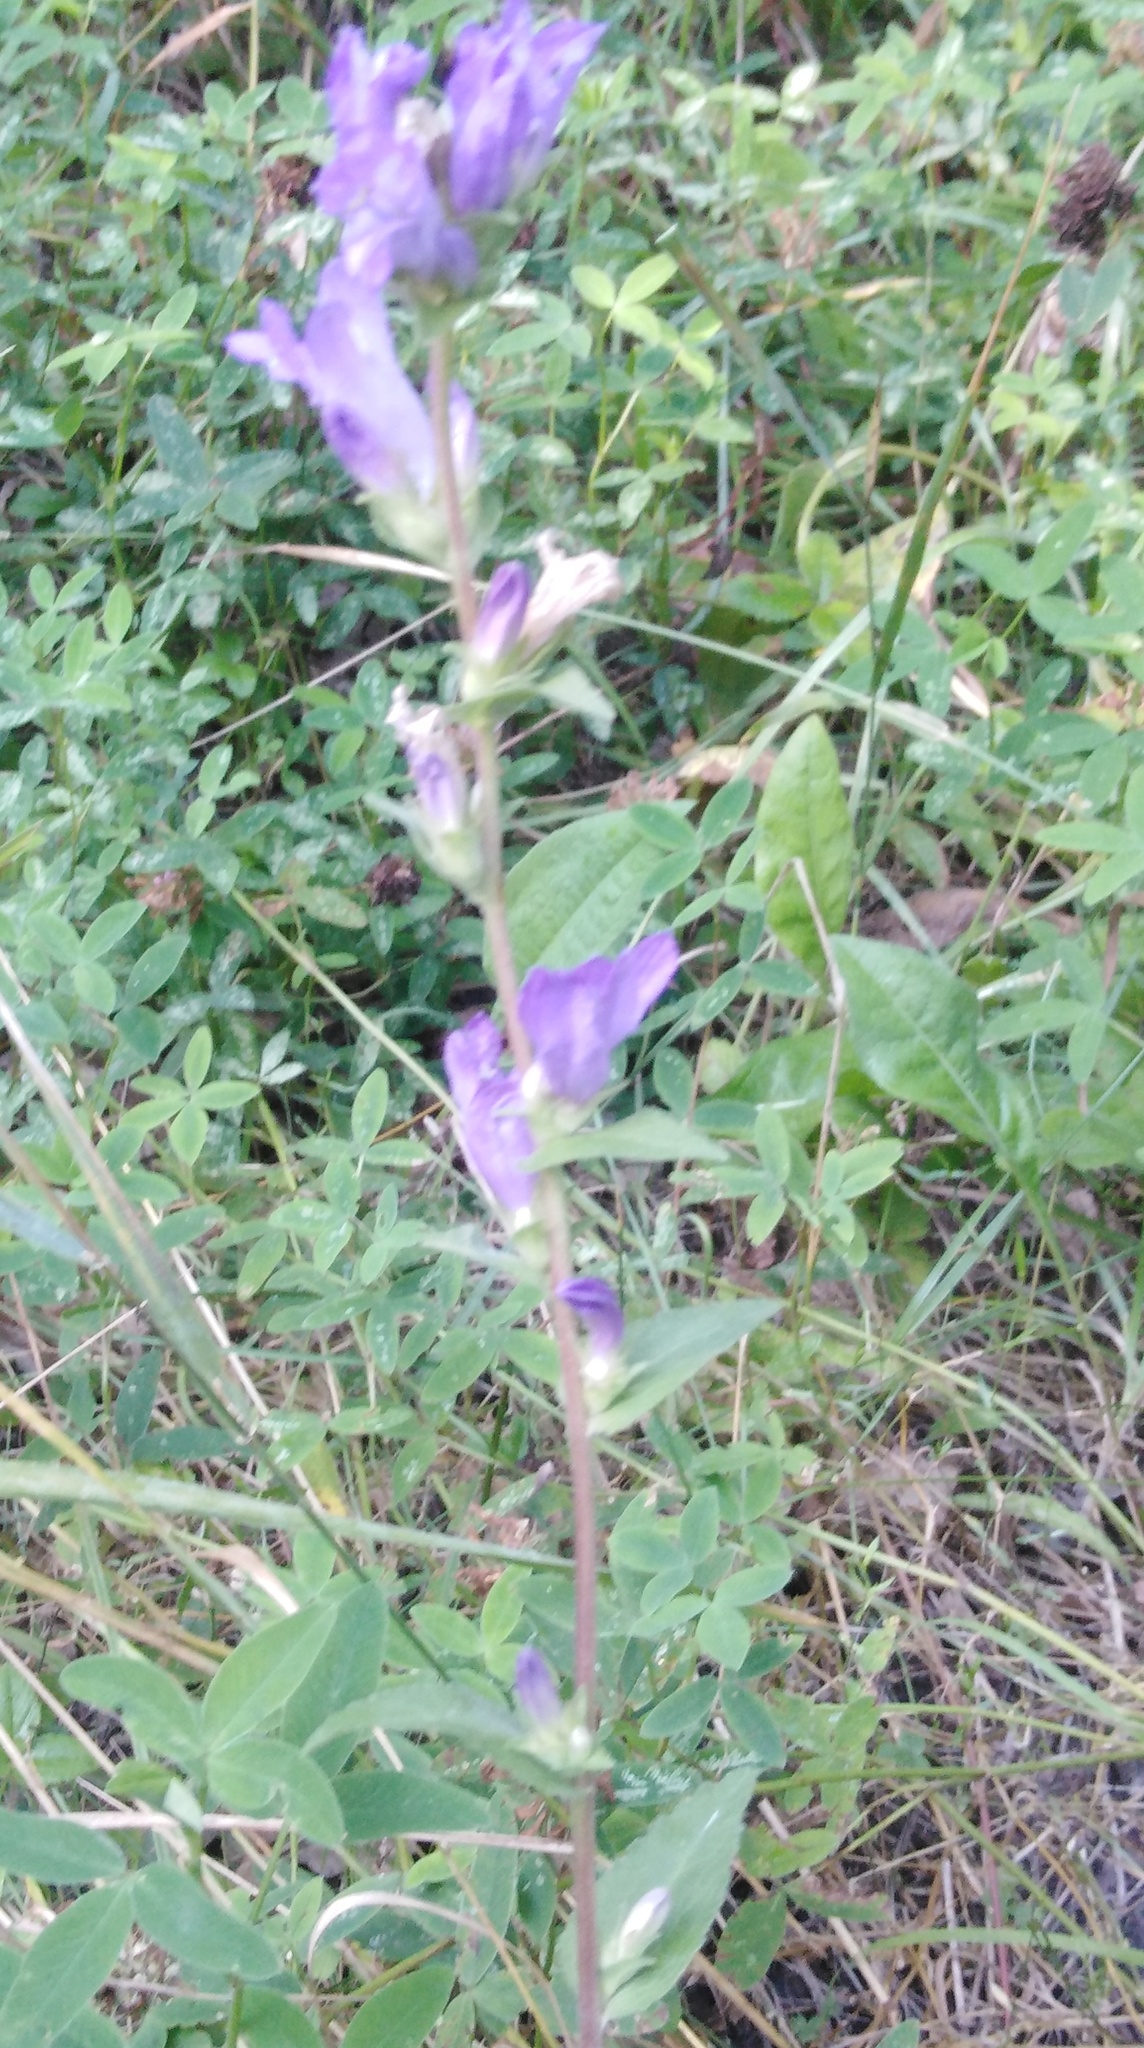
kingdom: Plantae
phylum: Tracheophyta
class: Magnoliopsida
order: Asterales
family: Campanulaceae
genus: Campanula
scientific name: Campanula glomerata
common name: Clustered bellflower
